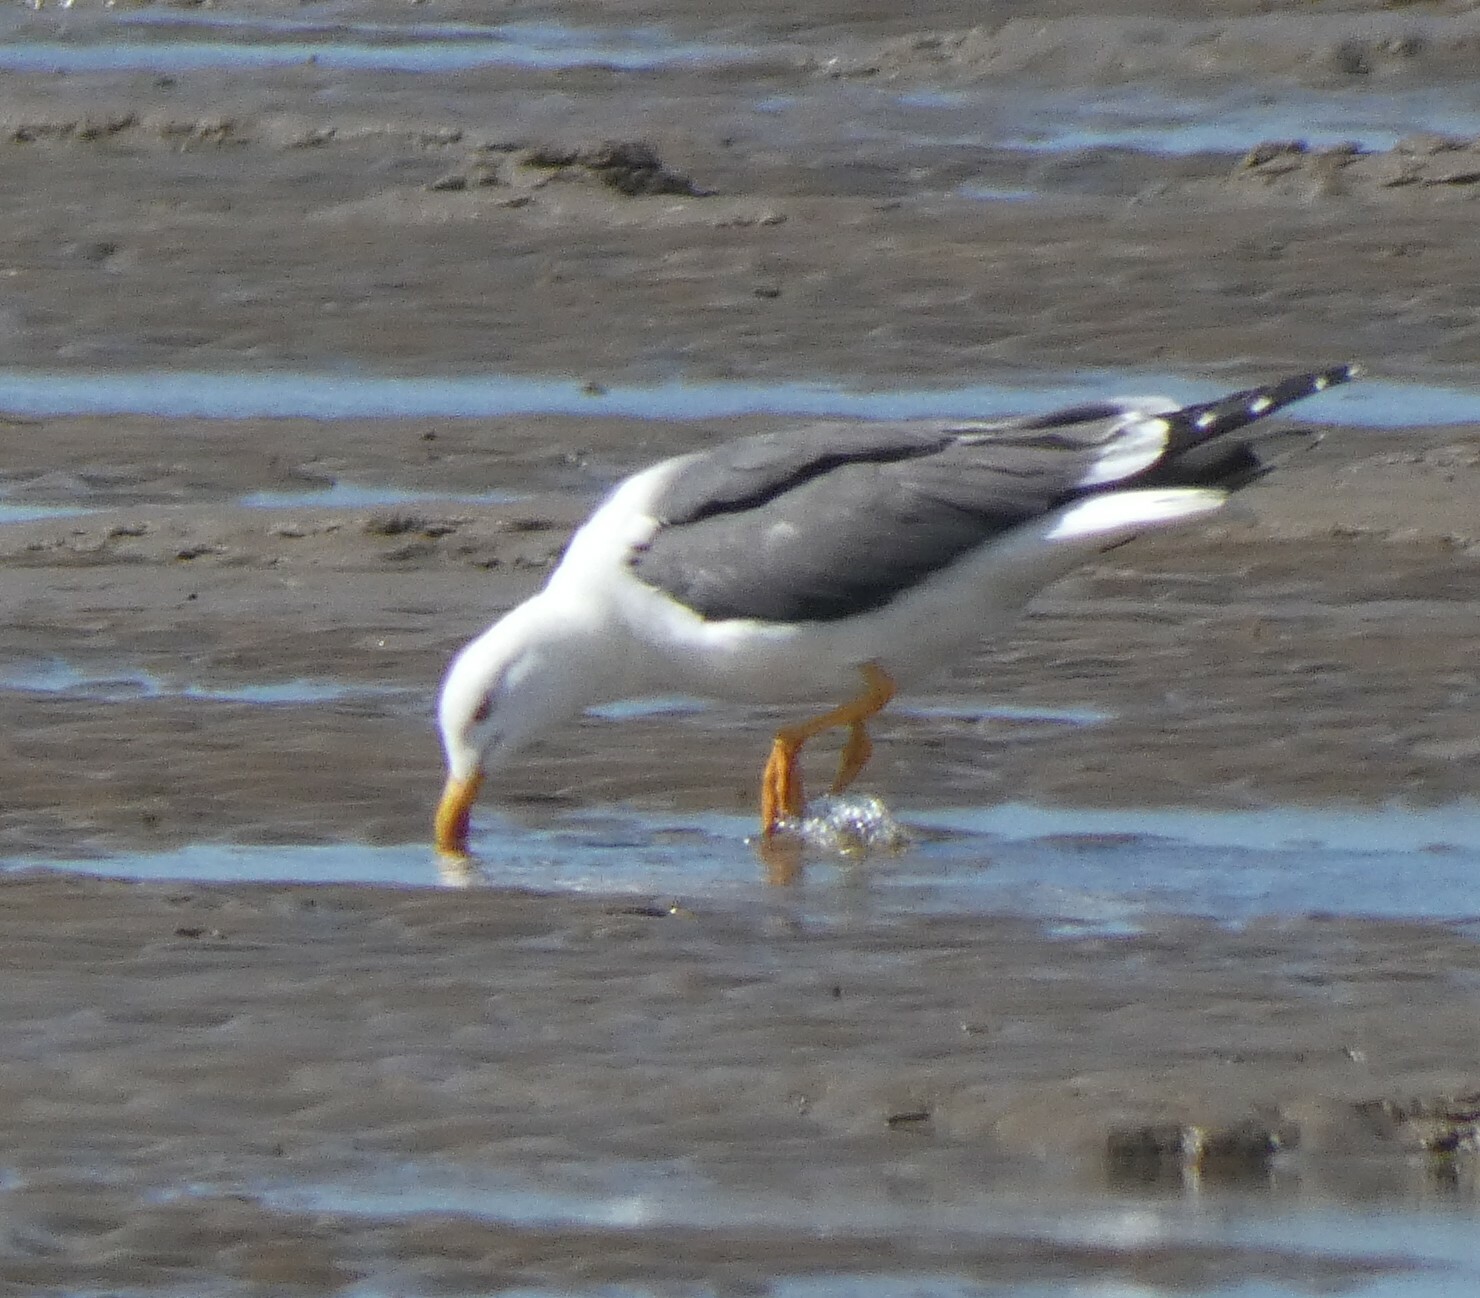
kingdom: Animalia
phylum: Chordata
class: Aves
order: Charadriiformes
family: Laridae
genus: Larus
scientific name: Larus fuscus
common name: Lesser black-backed gull
